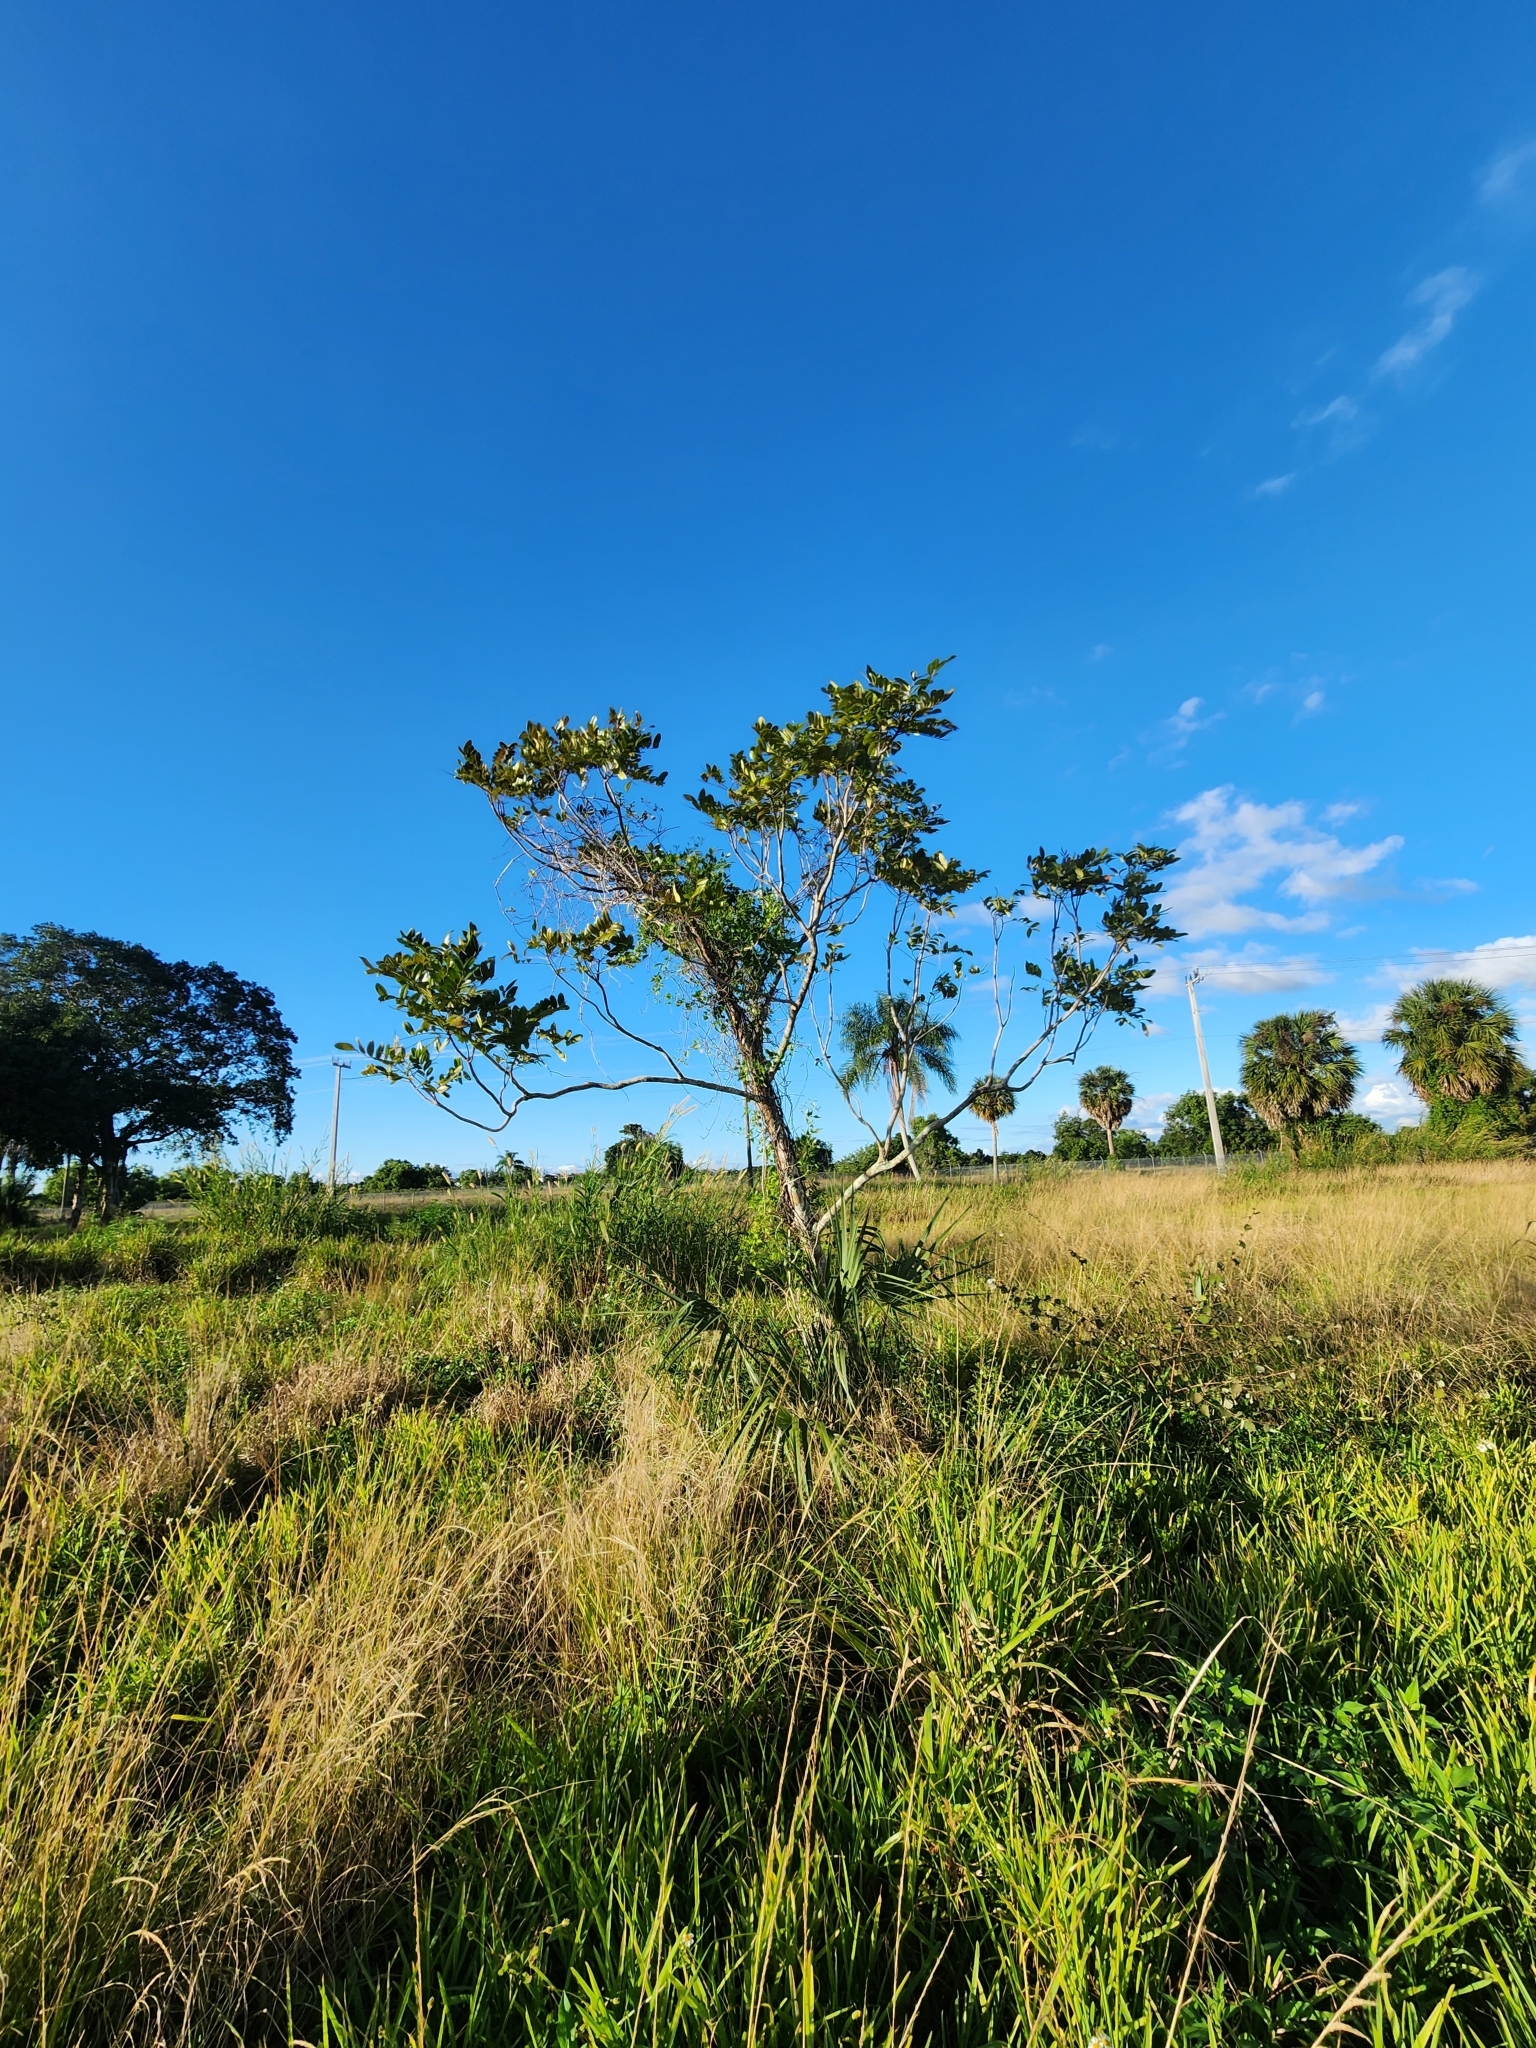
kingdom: Plantae
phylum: Tracheophyta
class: Magnoliopsida
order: Sapindales
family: Simaroubaceae
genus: Simarouba
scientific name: Simarouba glauca
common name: Dysentery-bark
